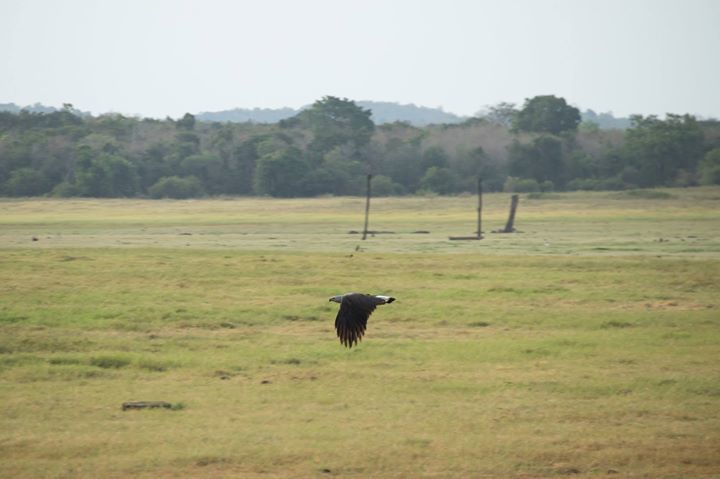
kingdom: Animalia
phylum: Chordata
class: Aves
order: Accipitriformes
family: Accipitridae
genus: Icthyophaga
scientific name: Icthyophaga ichthyaetus
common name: Grey-headed fish eagle
